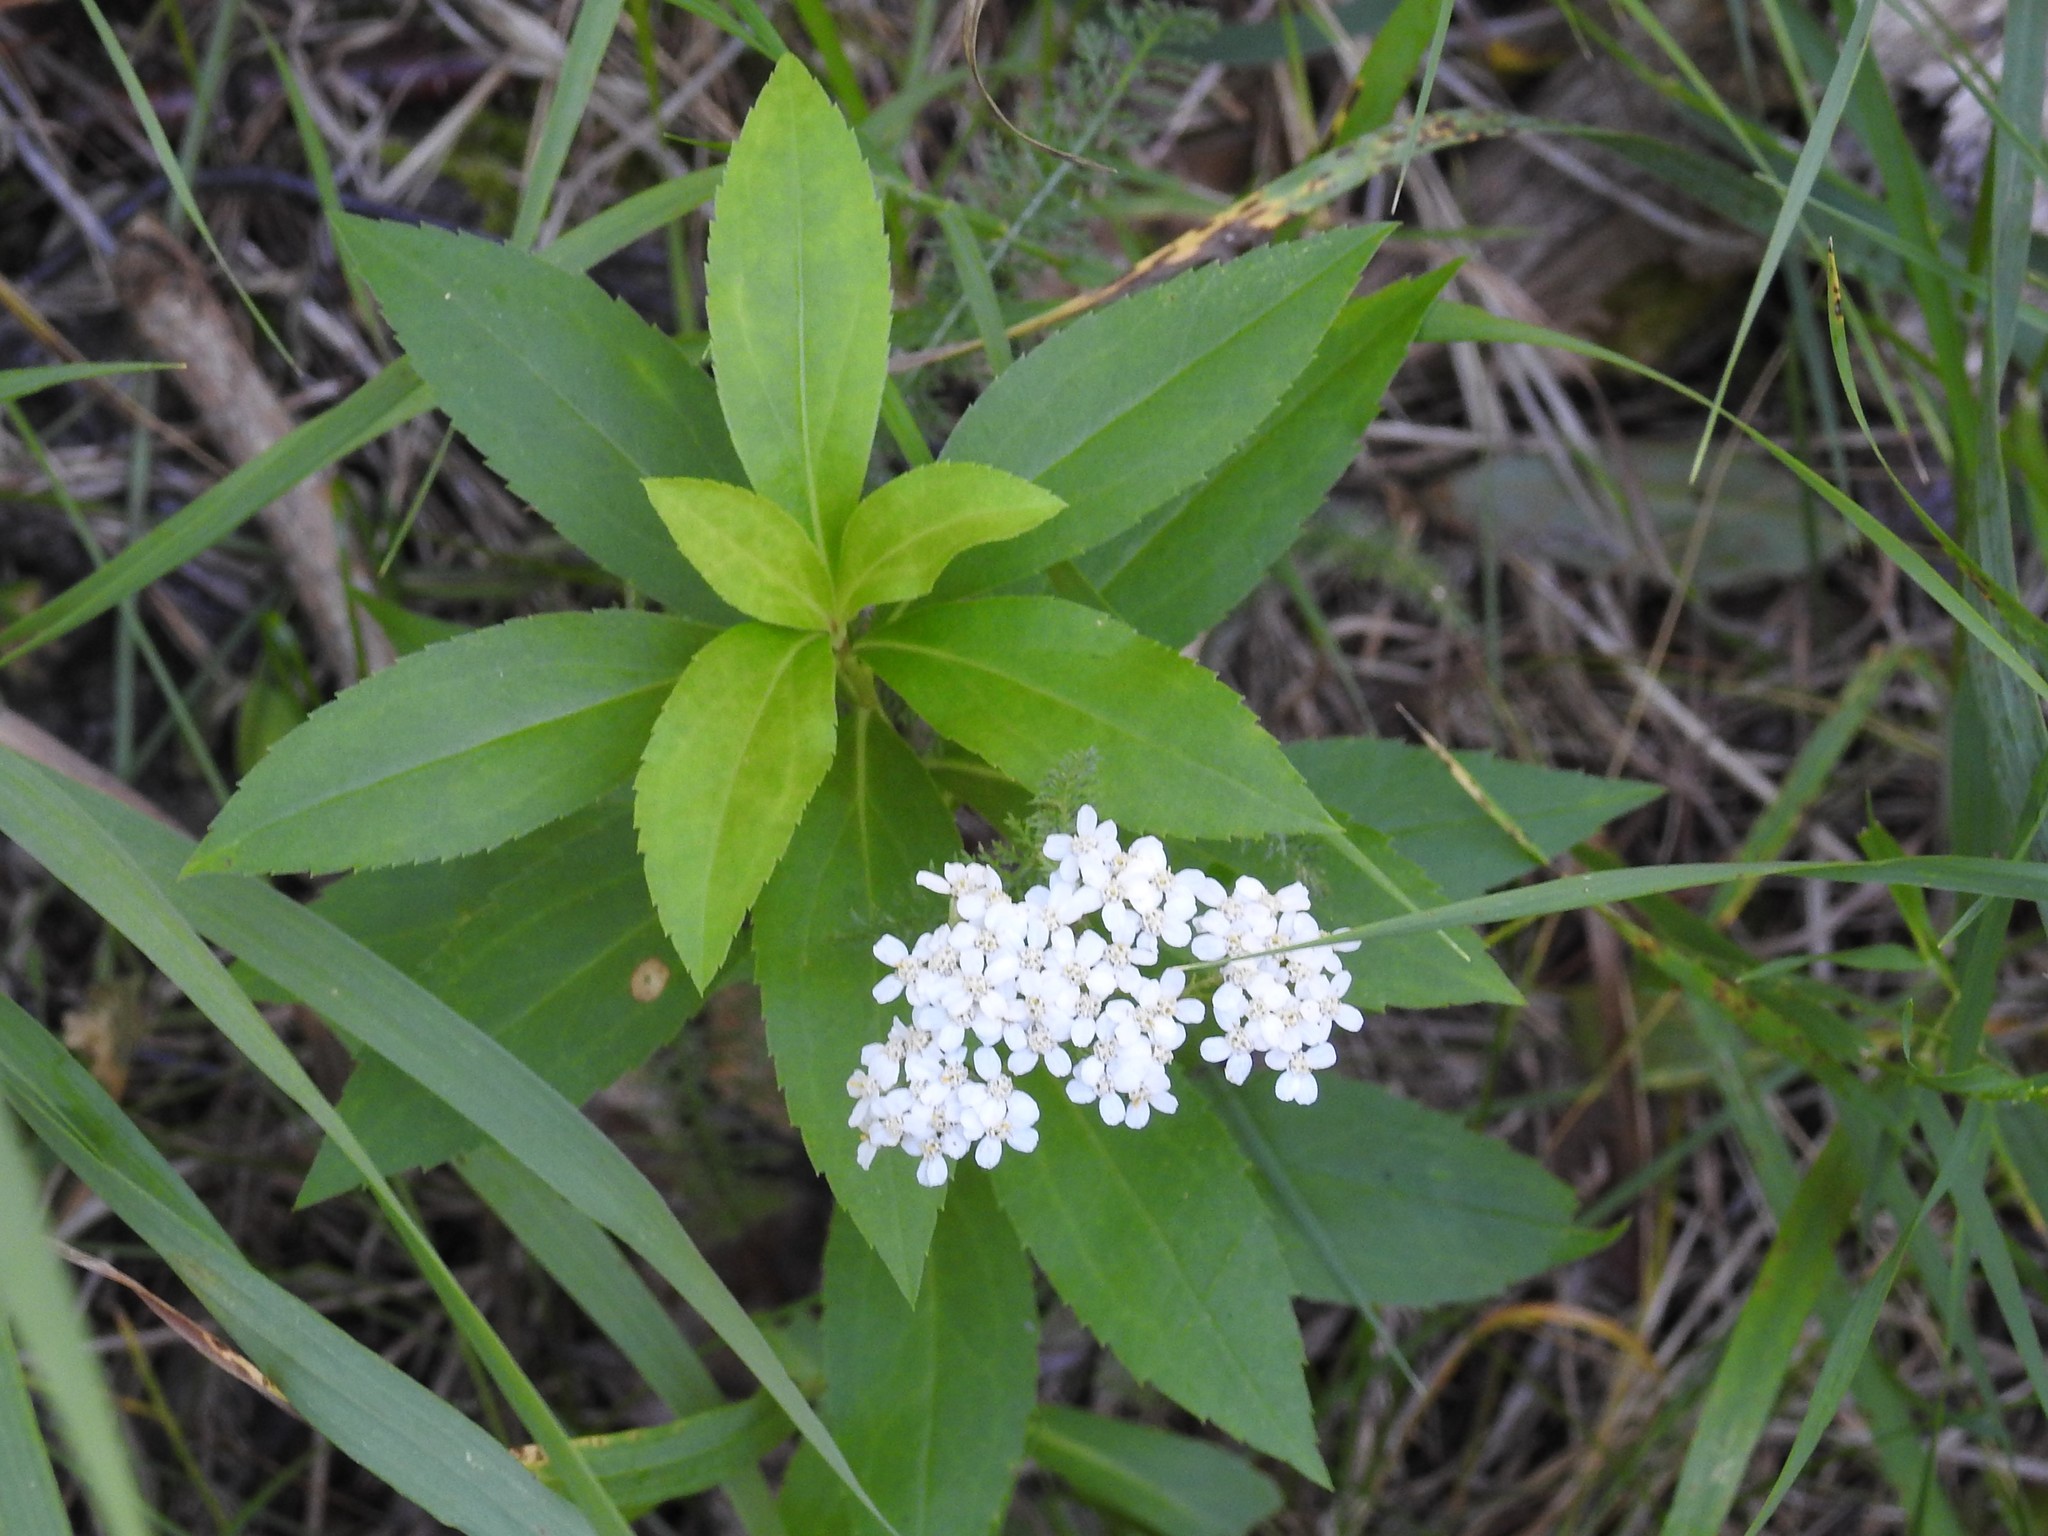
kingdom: Plantae
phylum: Tracheophyta
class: Magnoliopsida
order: Asterales
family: Asteraceae
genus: Achillea
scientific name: Achillea millefolium
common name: Yarrow
